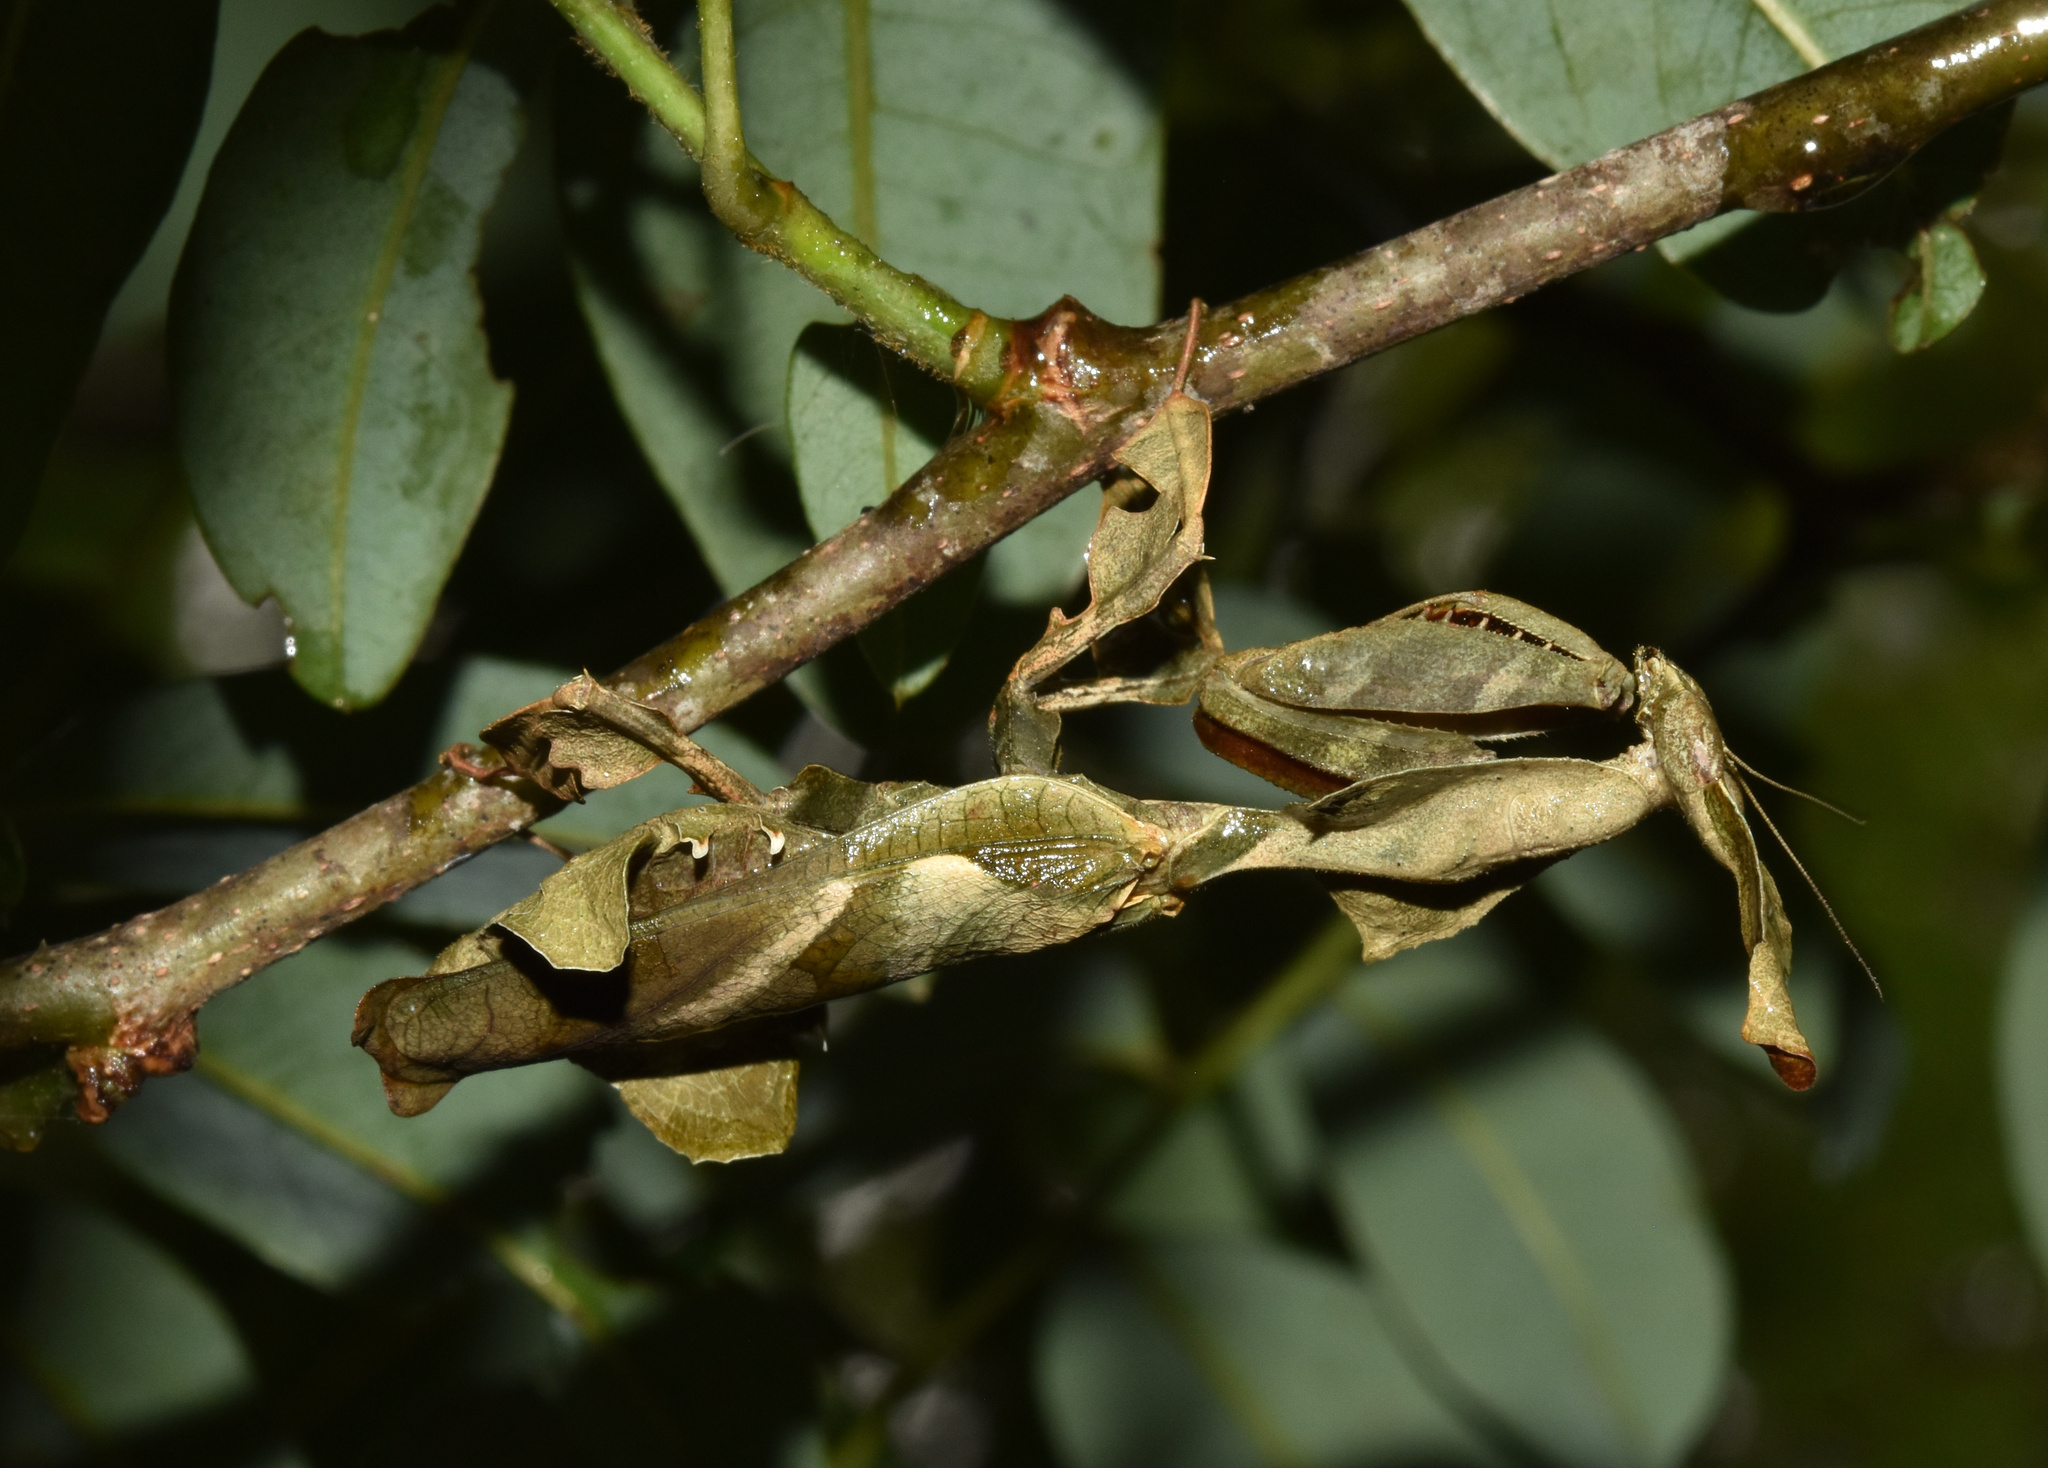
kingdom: Animalia
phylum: Arthropoda
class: Insecta
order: Mantodea
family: Hymenopodidae
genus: Phyllocrania
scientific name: Phyllocrania paradoxa
